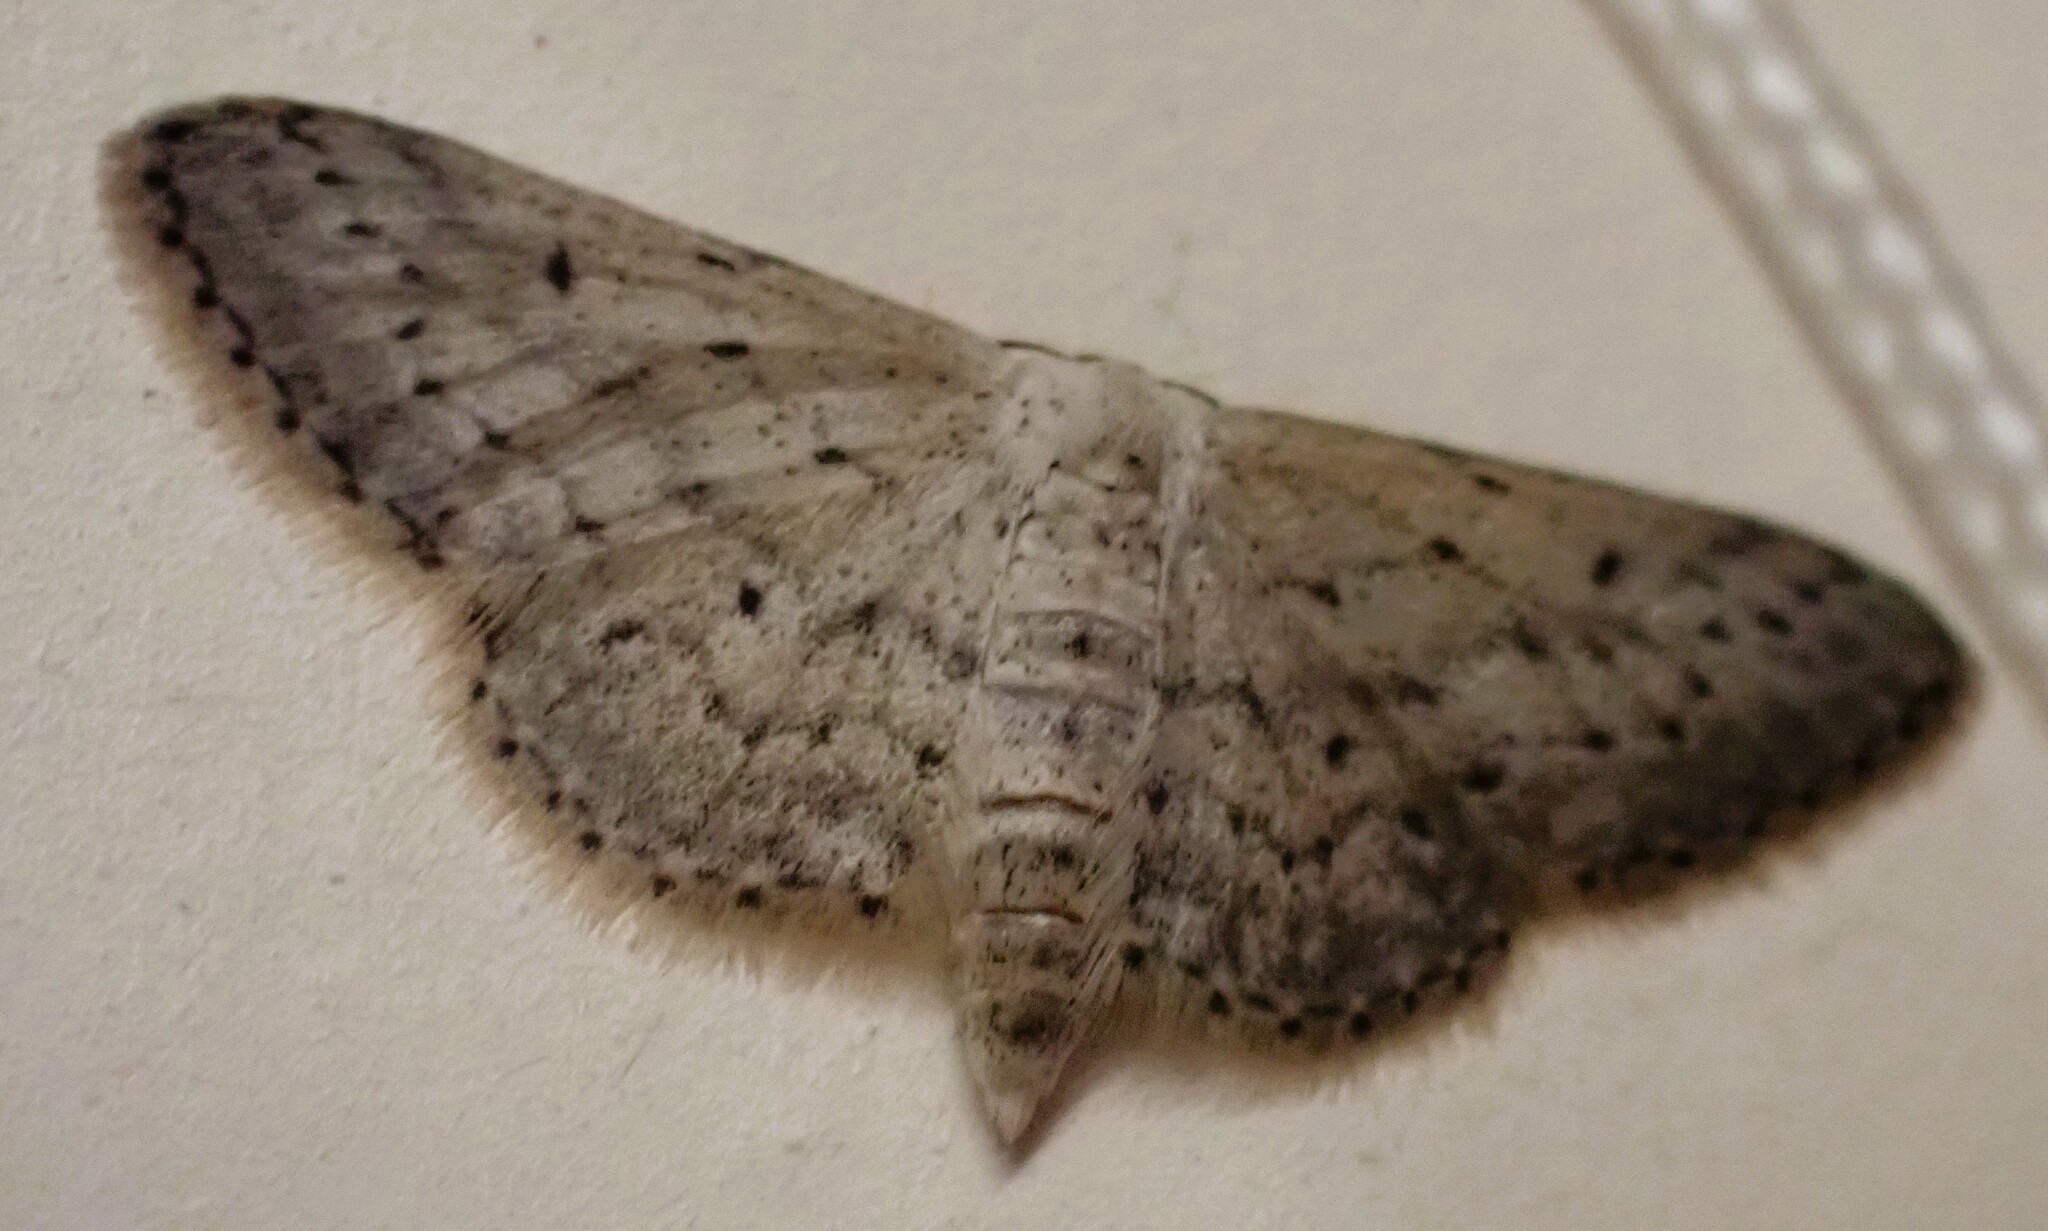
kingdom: Animalia
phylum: Arthropoda
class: Insecta
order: Lepidoptera
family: Geometridae
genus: Idaea
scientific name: Idaea seriata
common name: Small dusty wave
